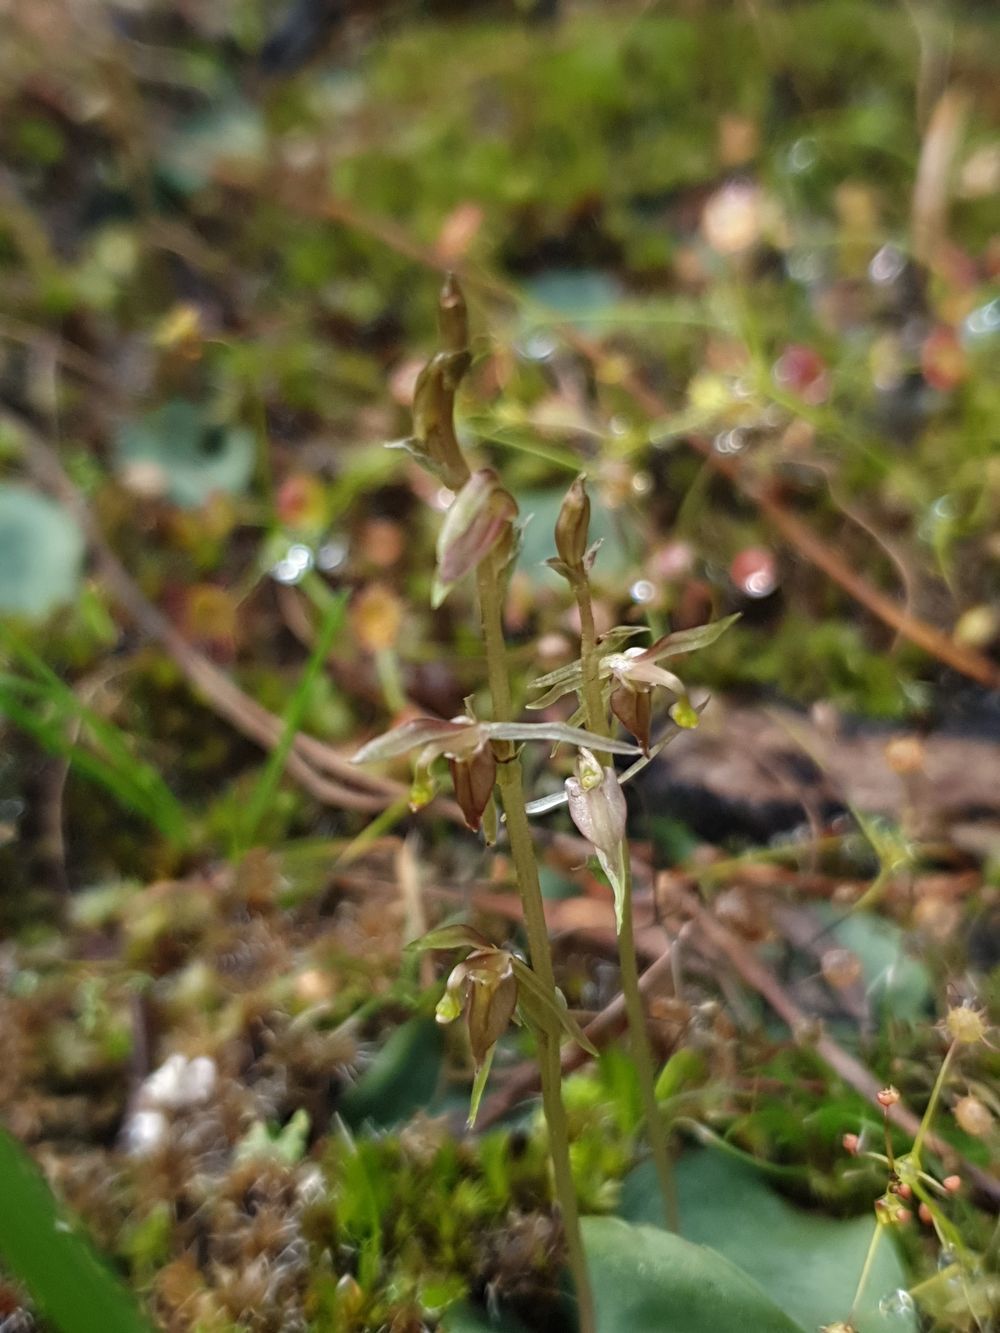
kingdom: Plantae
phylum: Tracheophyta
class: Liliopsida
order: Asparagales
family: Orchidaceae
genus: Cyrtostylis
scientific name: Cyrtostylis tenuissima
